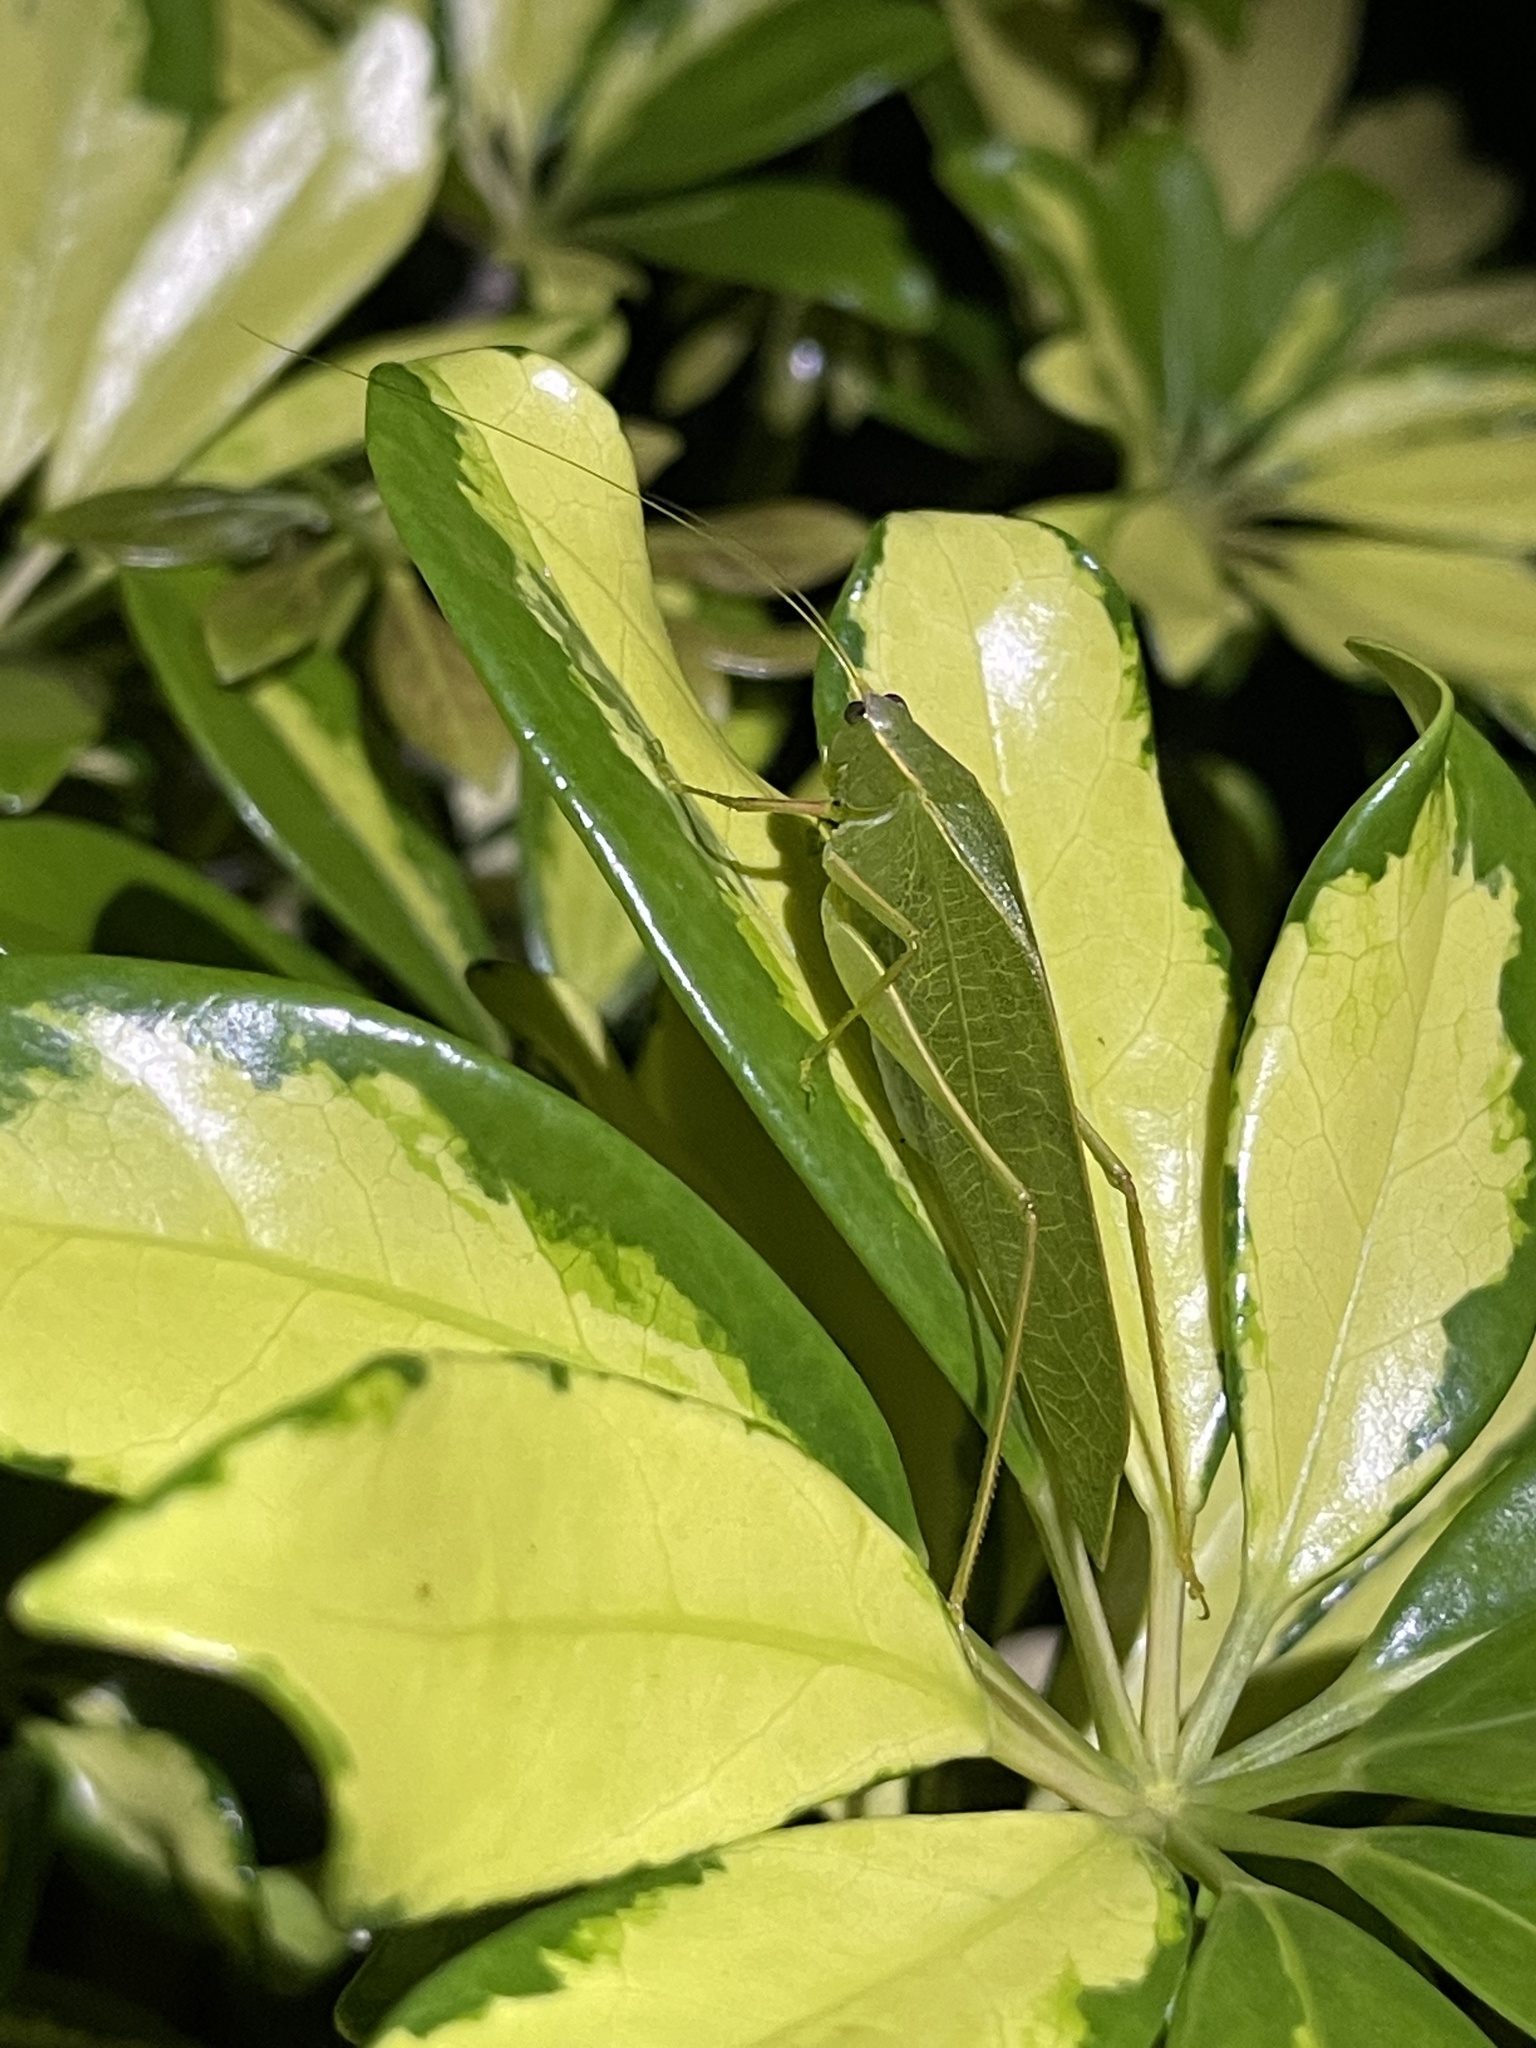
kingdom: Animalia
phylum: Arthropoda
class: Insecta
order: Orthoptera
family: Tettigoniidae
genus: Turpilia
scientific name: Turpilia rostrata
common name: Narrow-beaked katydid
